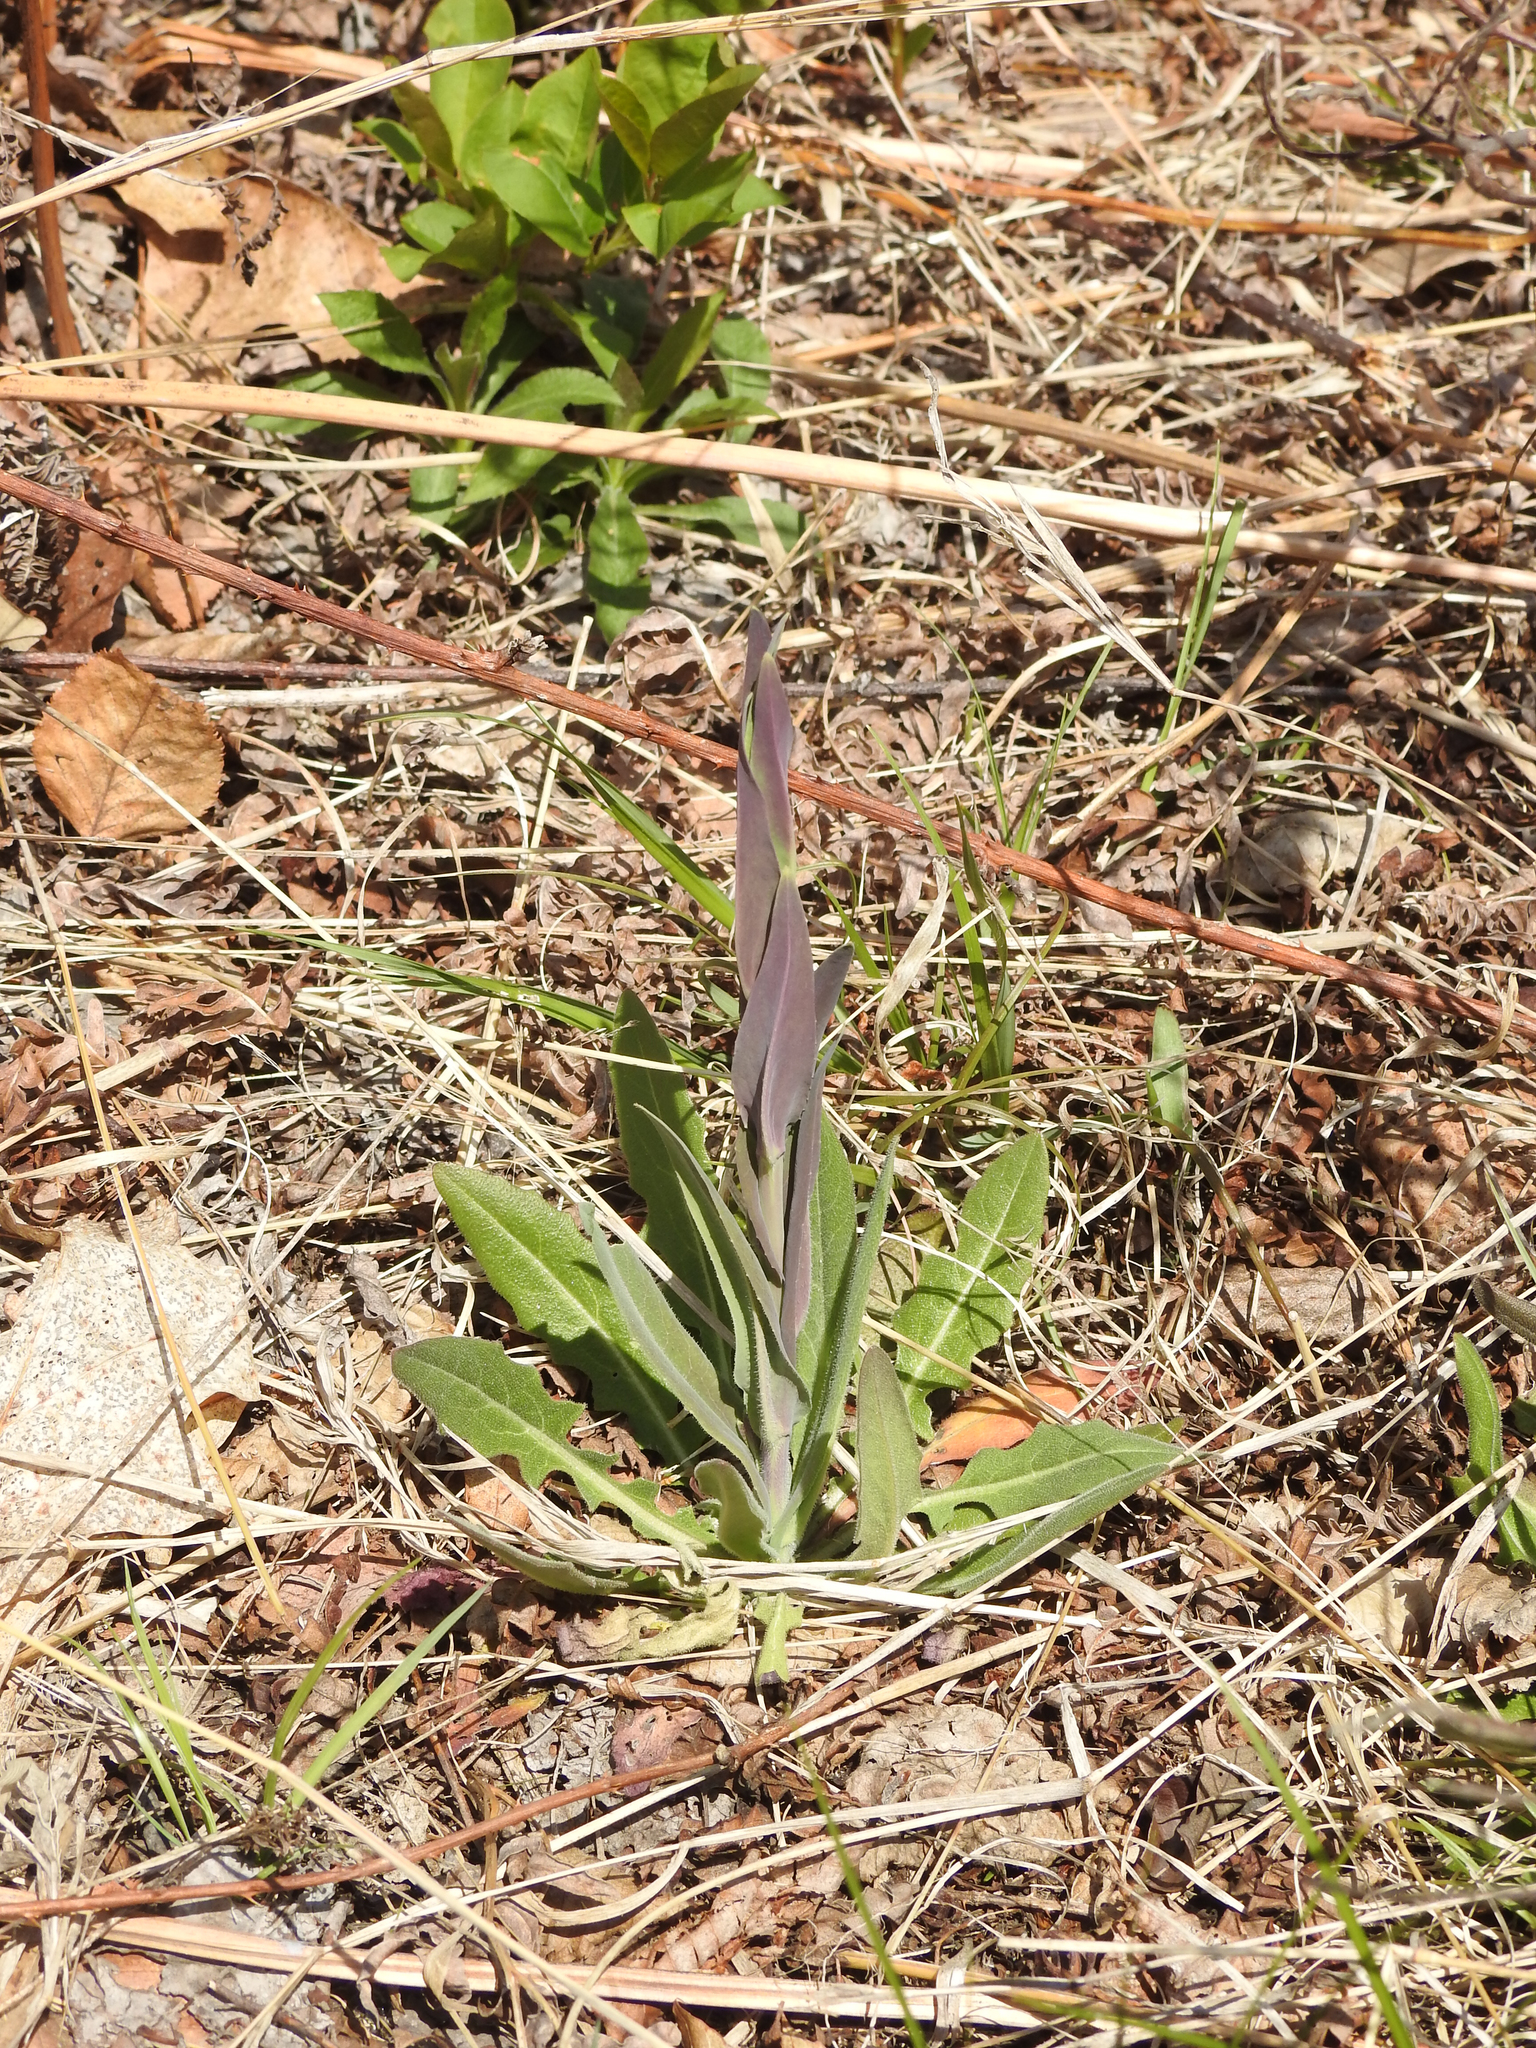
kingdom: Plantae
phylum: Tracheophyta
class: Magnoliopsida
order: Brassicales
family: Brassicaceae
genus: Turritis
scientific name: Turritis glabra
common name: Tower rockcress
